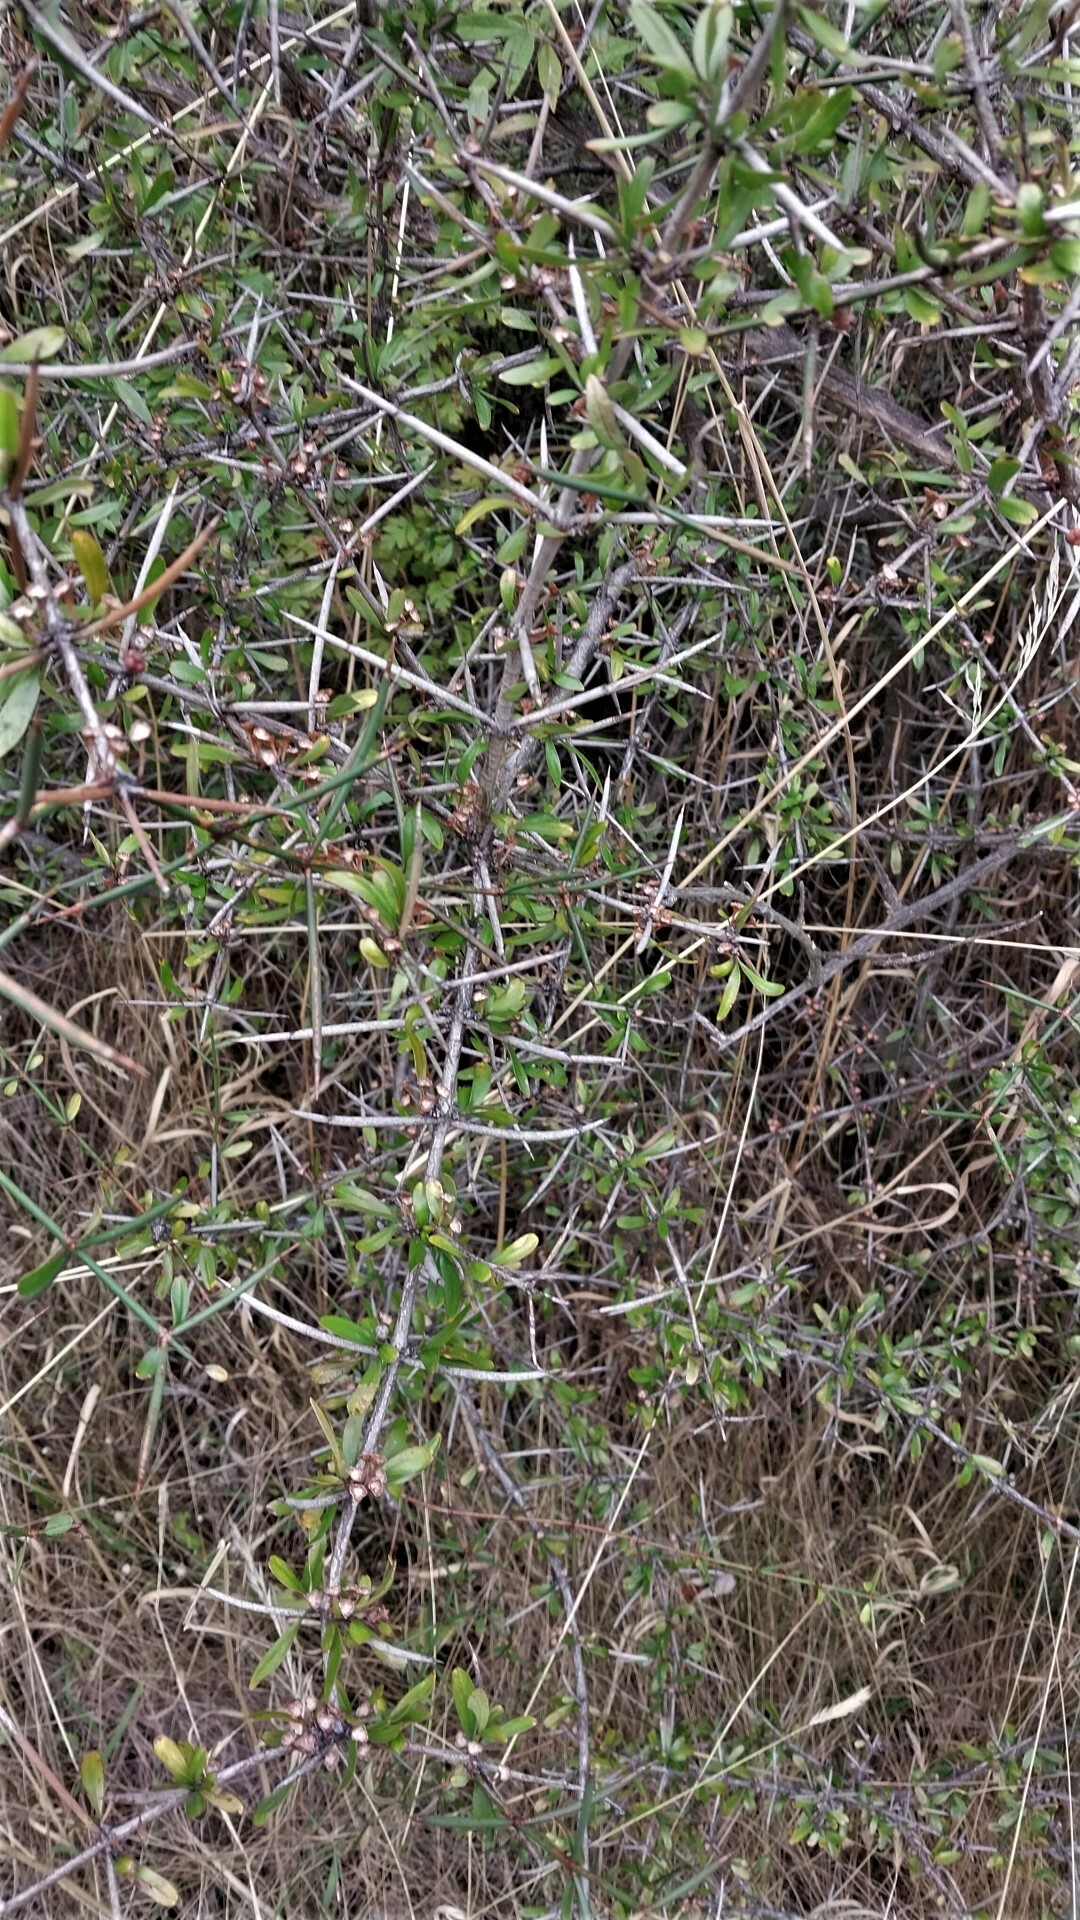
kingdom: Plantae
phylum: Tracheophyta
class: Magnoliopsida
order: Rosales
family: Rhamnaceae
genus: Discaria
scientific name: Discaria toumatou
